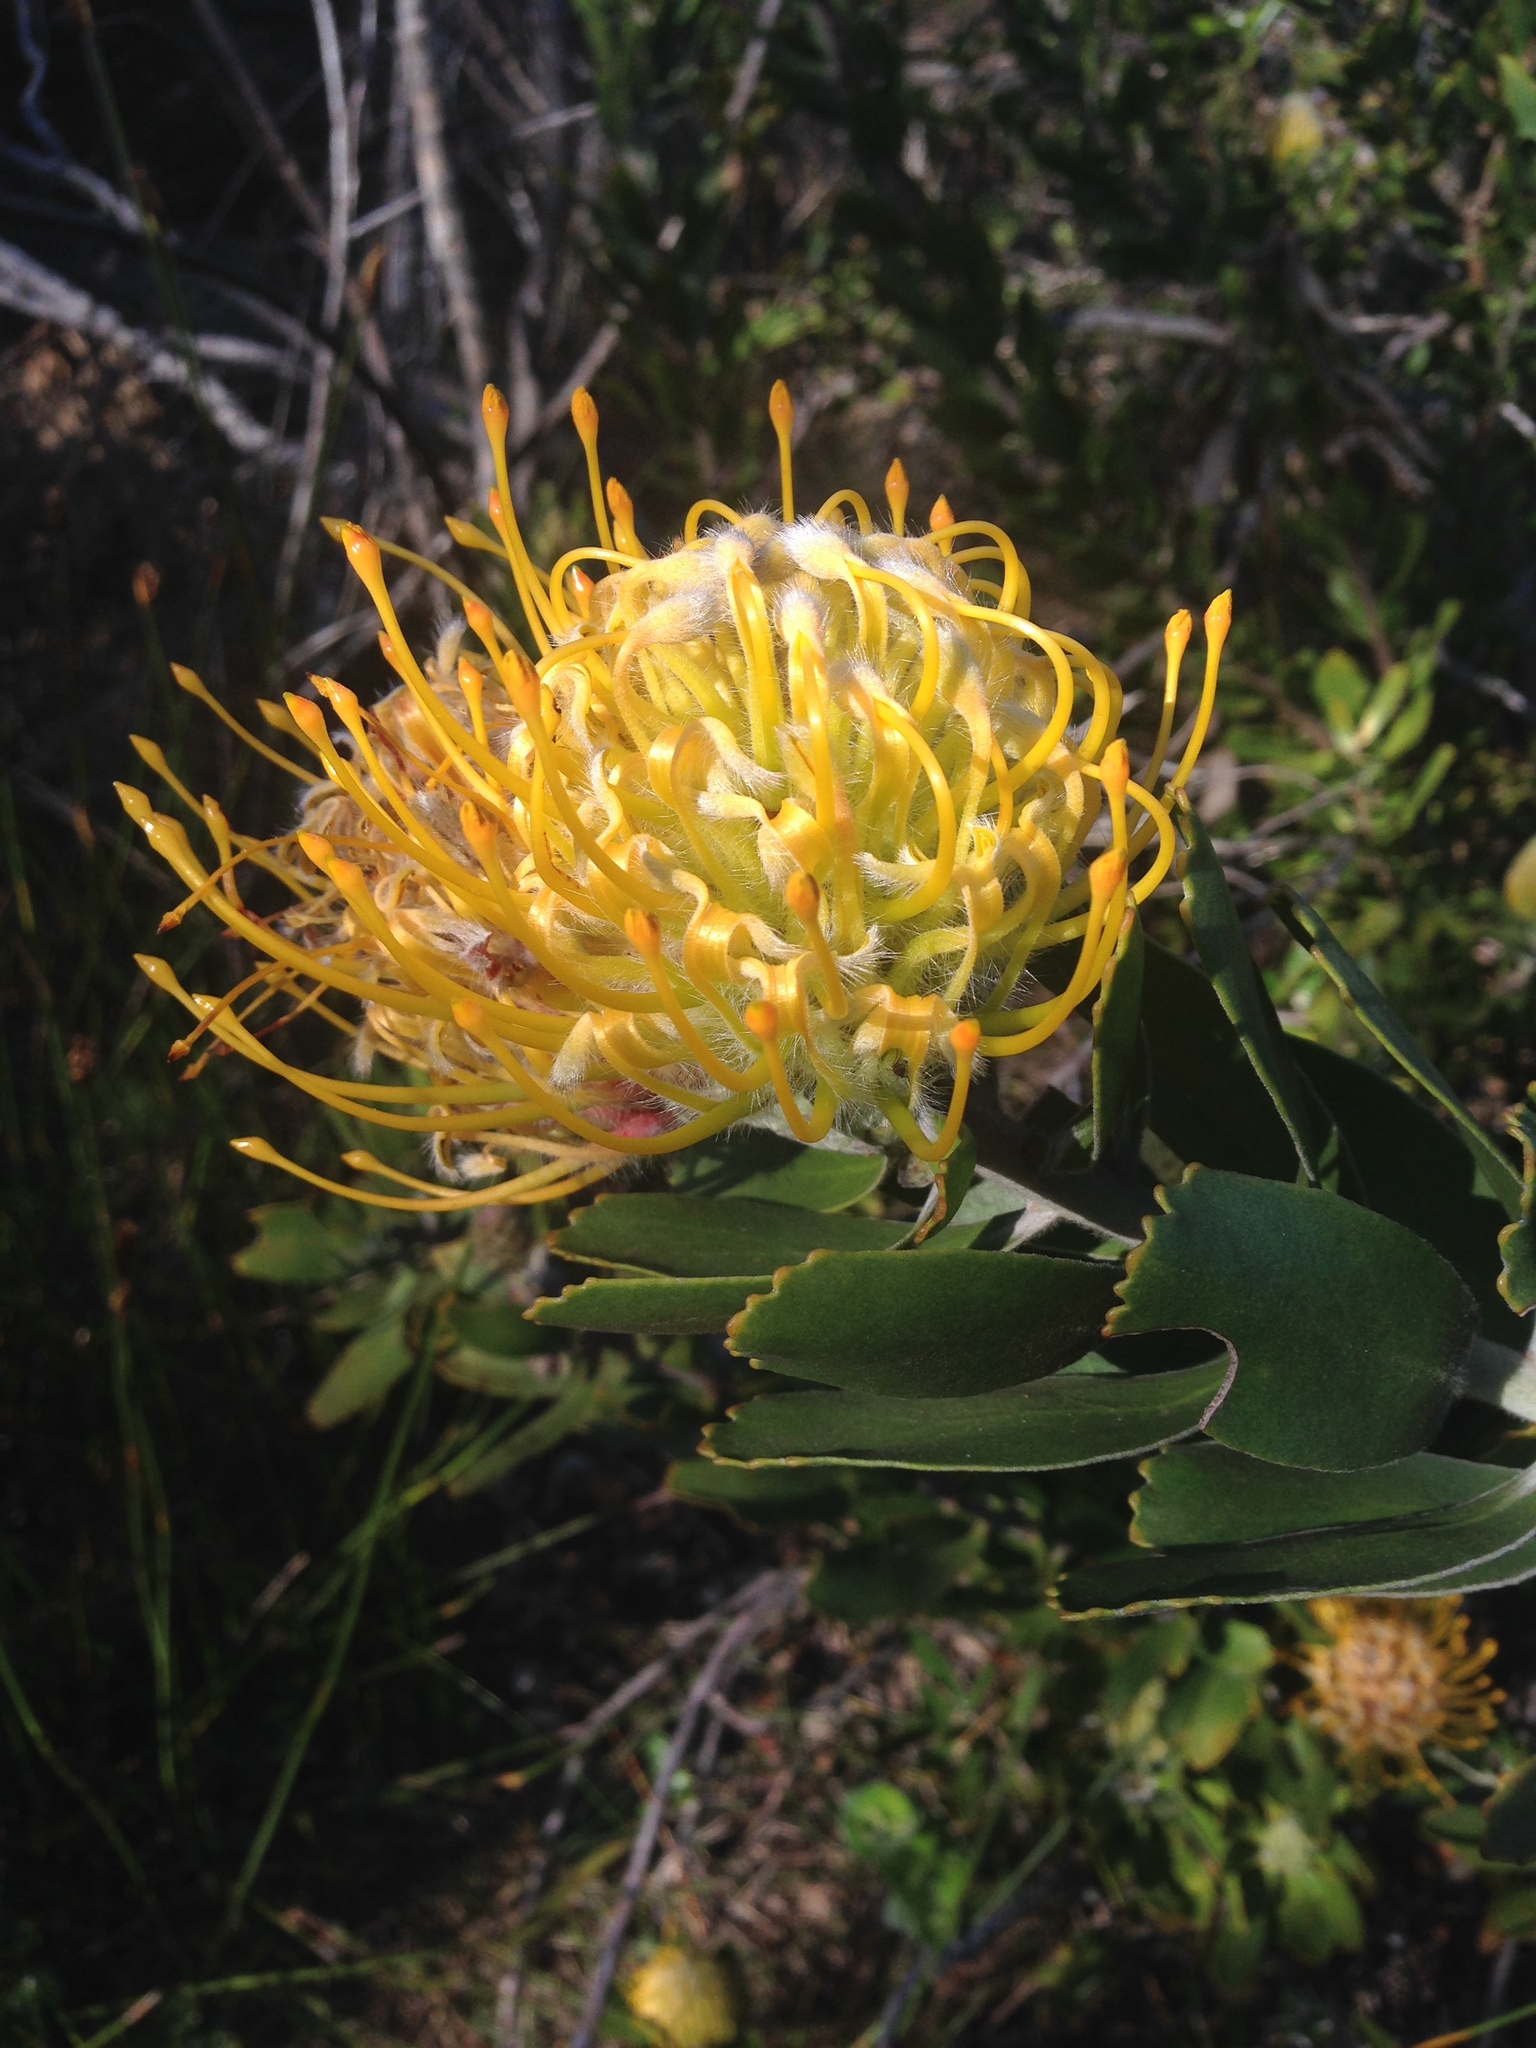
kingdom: Plantae
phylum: Tracheophyta
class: Magnoliopsida
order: Proteales
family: Proteaceae
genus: Leucospermum
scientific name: Leucospermum cuneiforme
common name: Common pincushion
